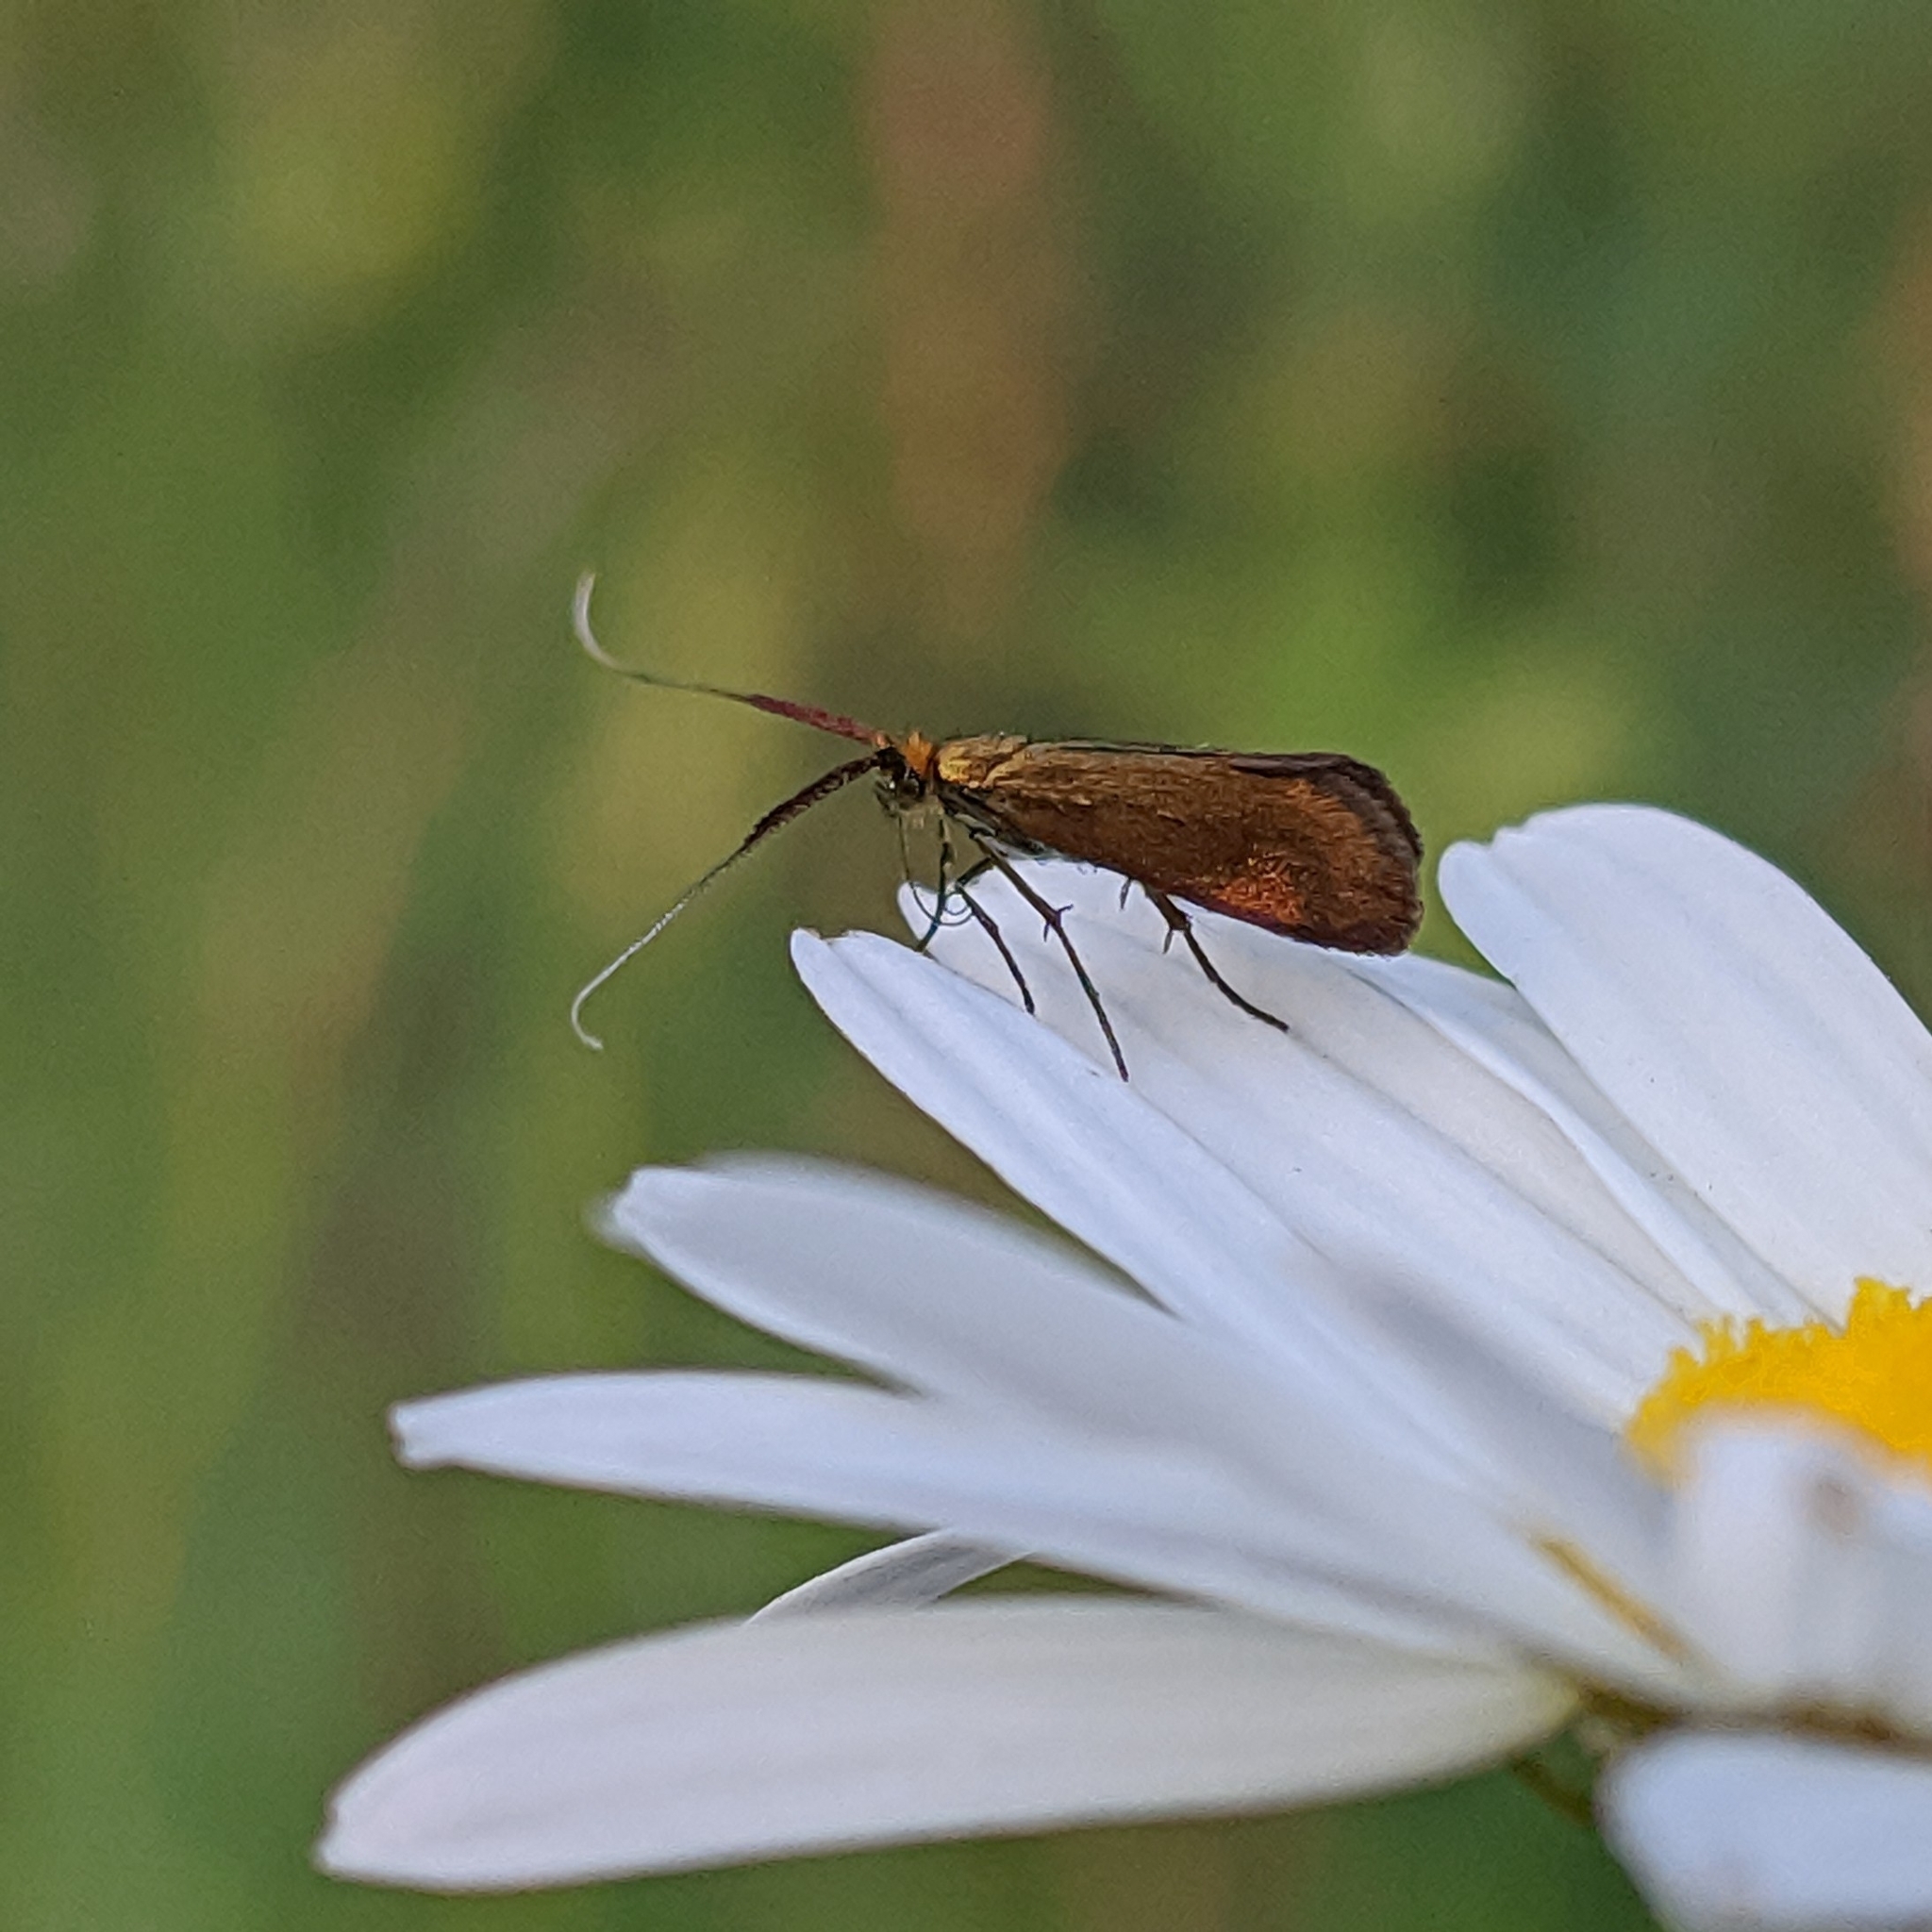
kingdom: Animalia
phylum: Arthropoda
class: Insecta
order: Lepidoptera
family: Adelidae
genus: Adela
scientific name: Adela violella
